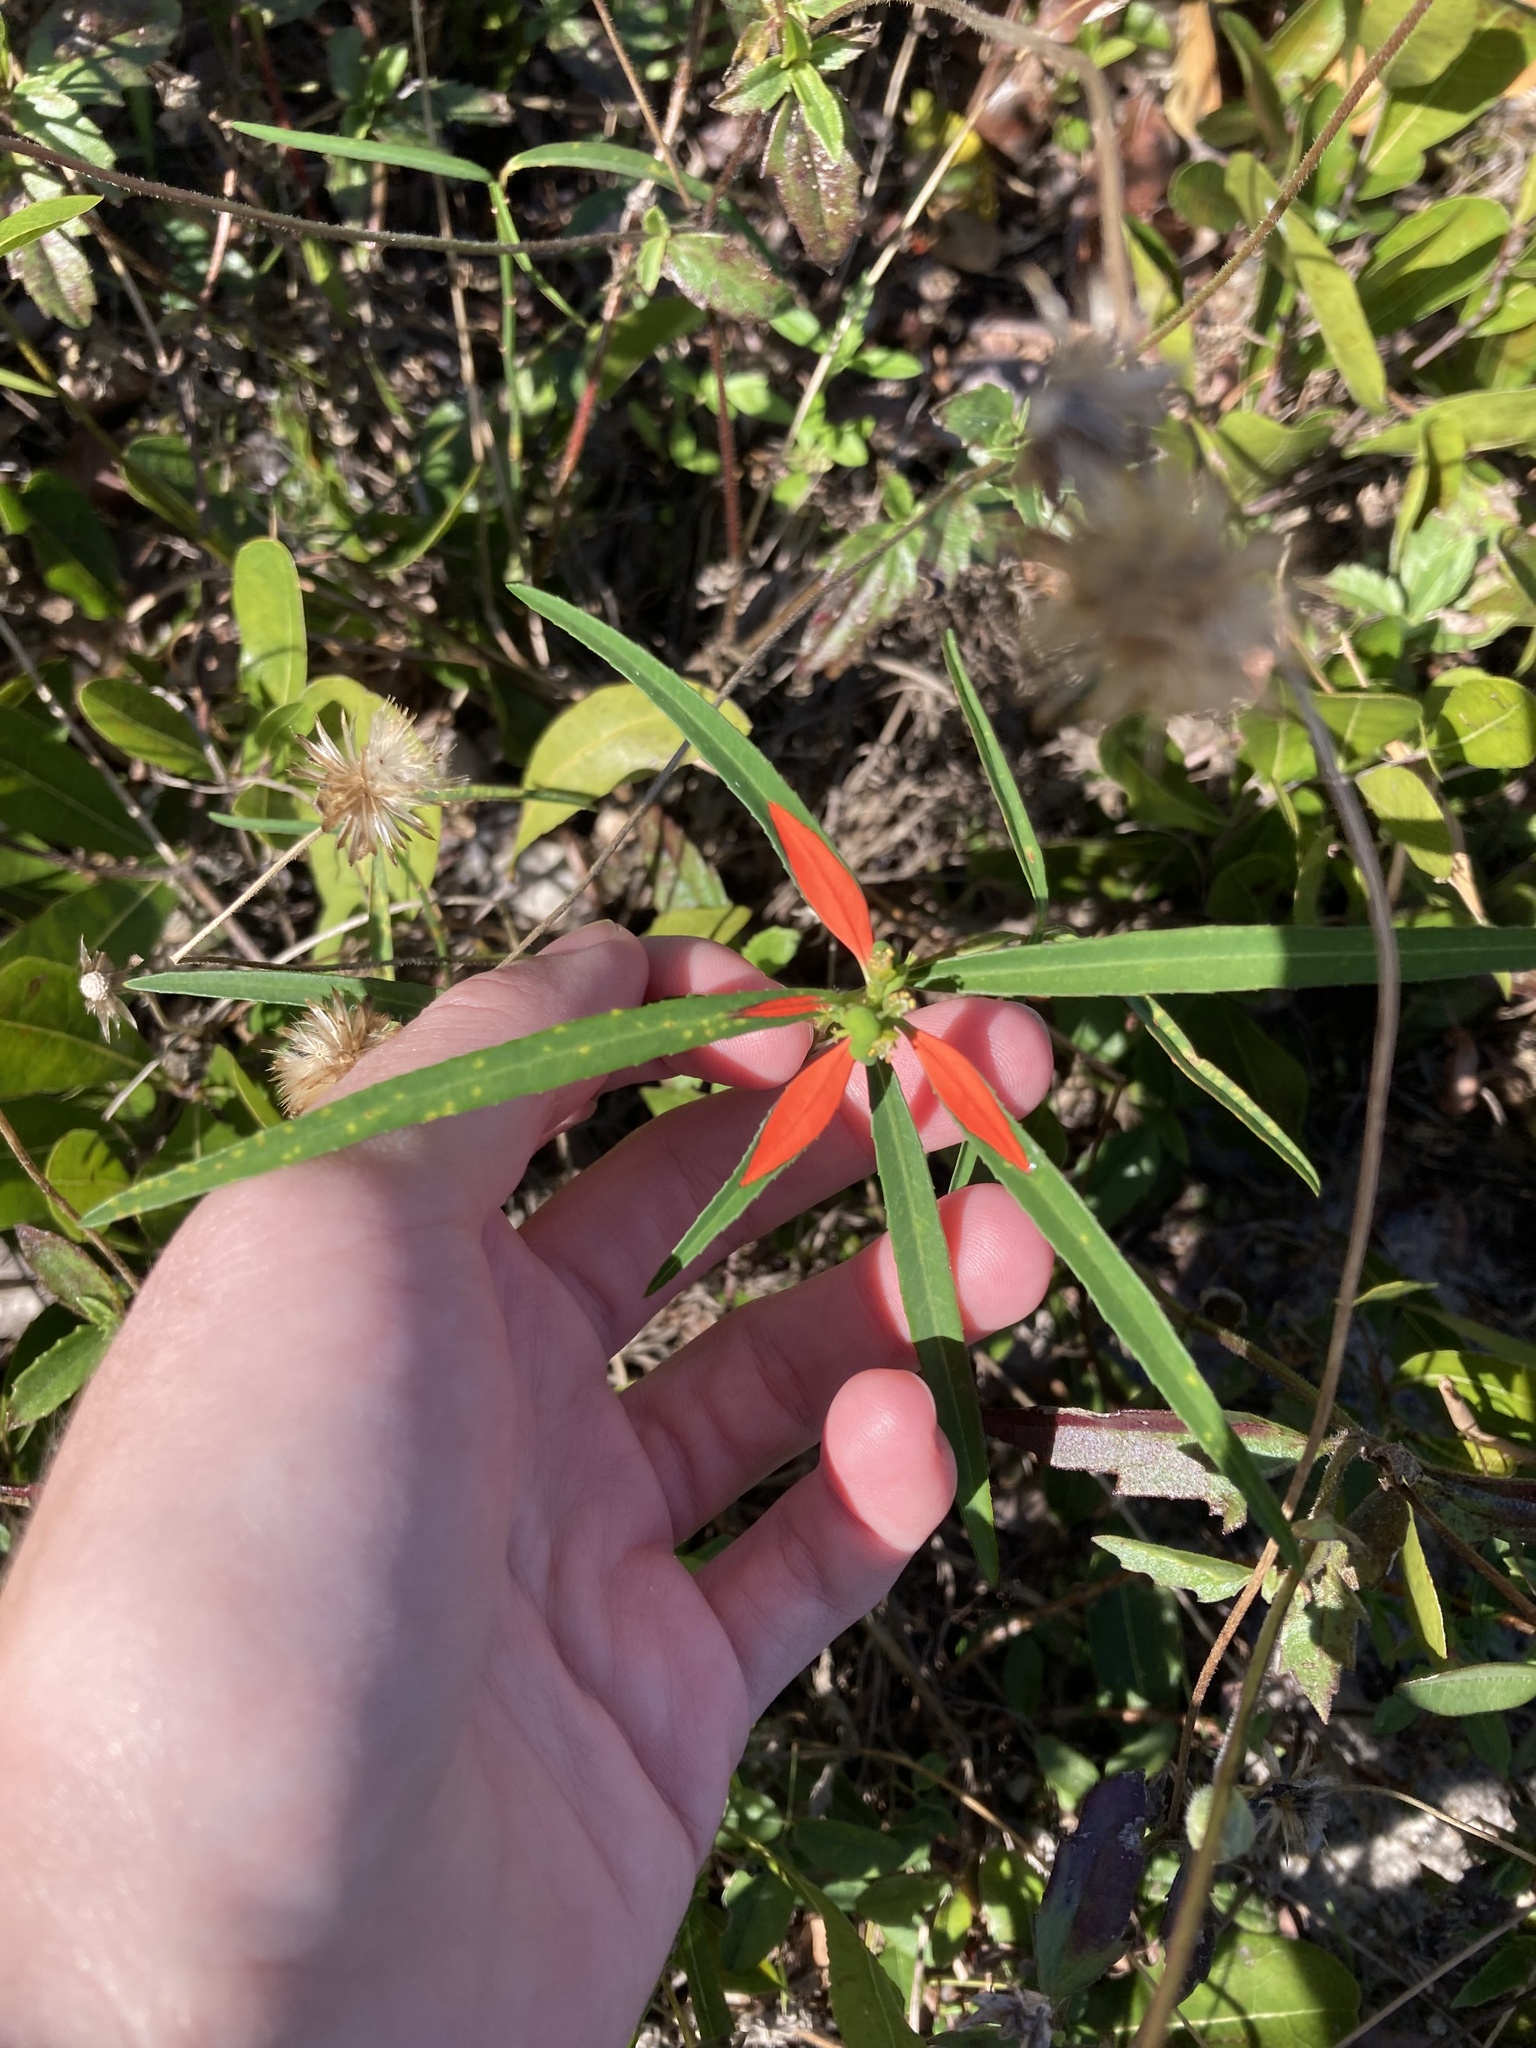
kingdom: Plantae
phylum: Tracheophyta
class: Magnoliopsida
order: Malpighiales
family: Euphorbiaceae
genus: Euphorbia
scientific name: Euphorbia heterophylla
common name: Mexican fireplant
